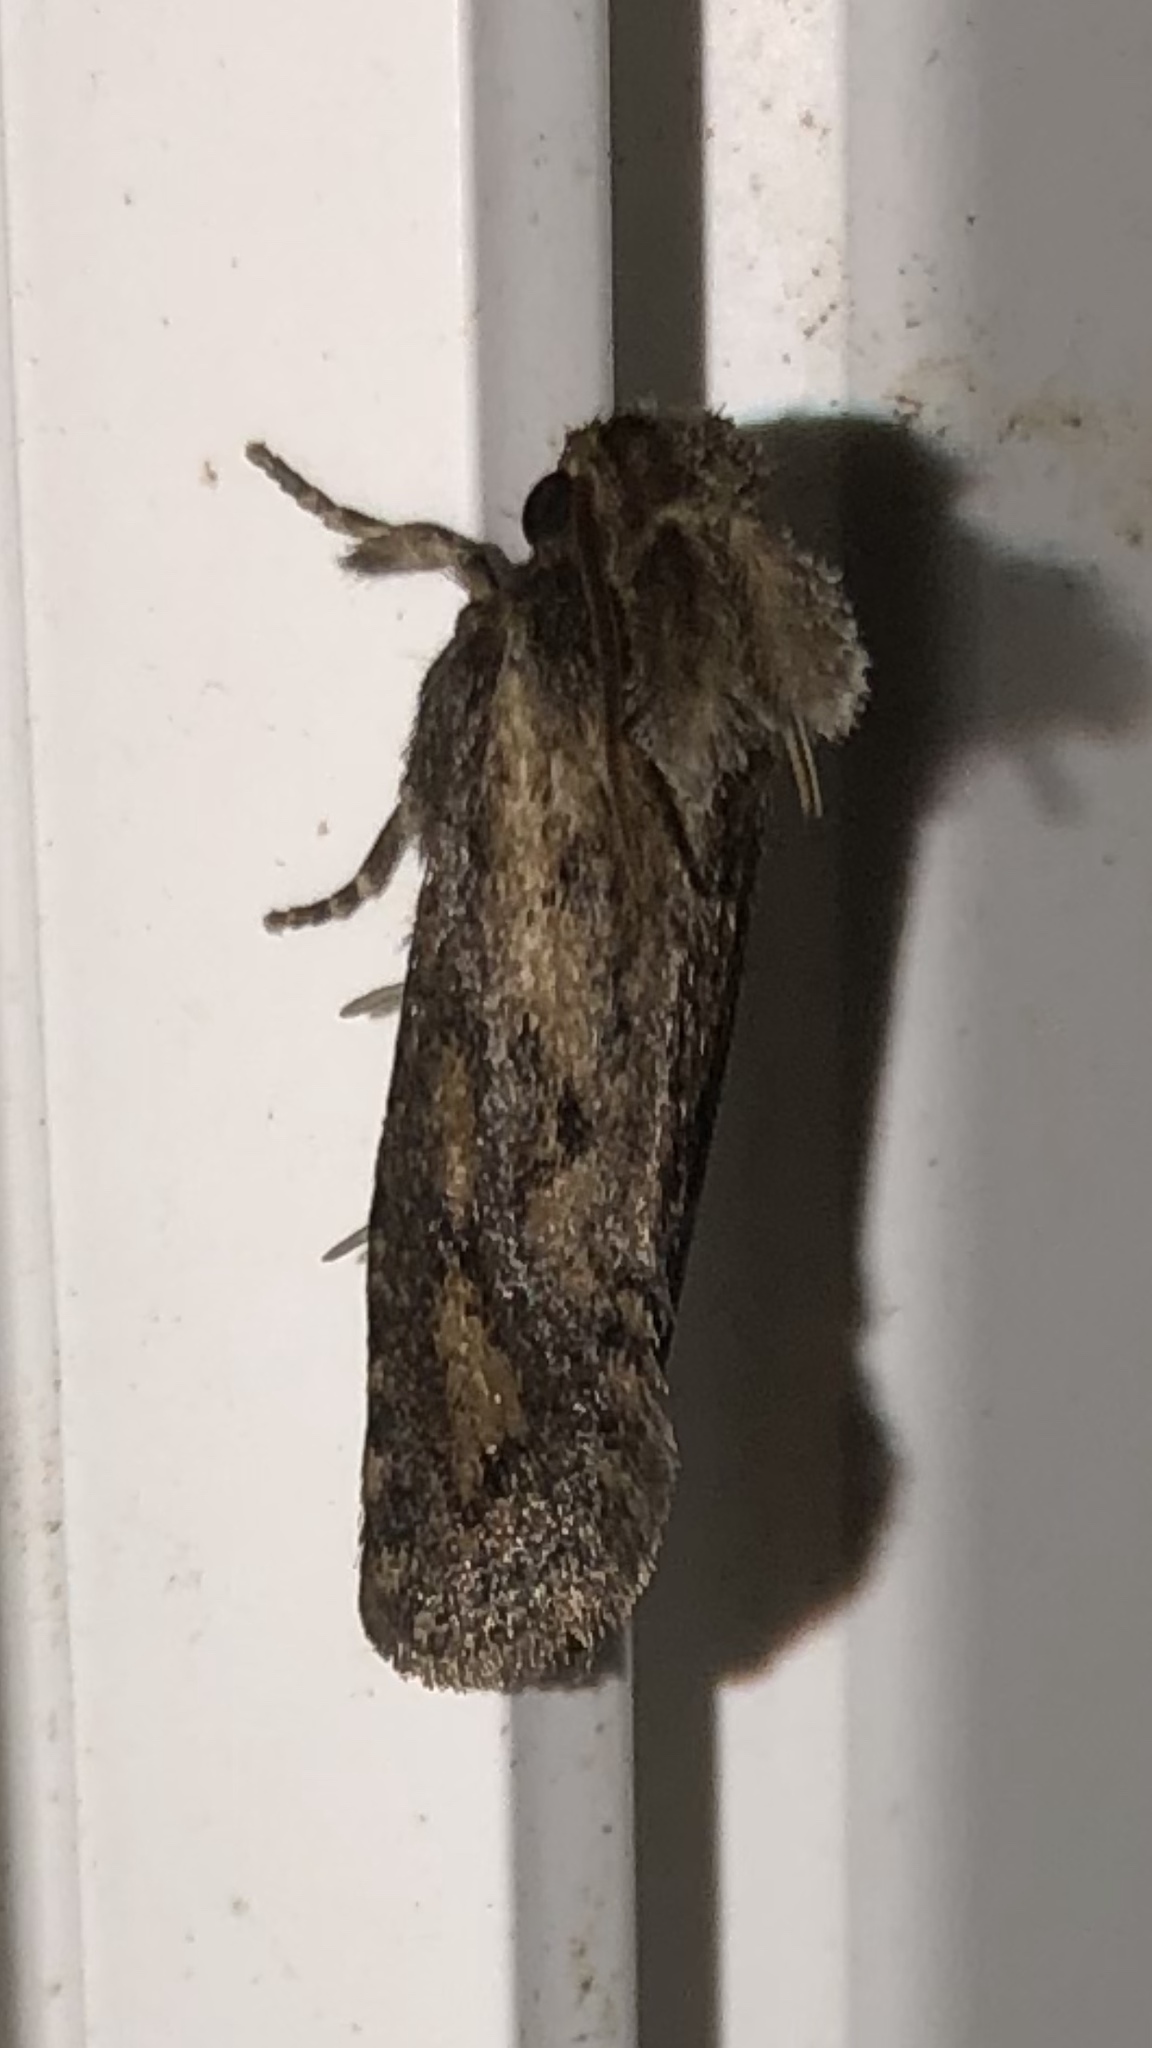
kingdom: Animalia
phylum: Arthropoda
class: Insecta
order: Lepidoptera
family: Tineidae
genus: Acrolophus
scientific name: Acrolophus popeanella
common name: Clemens' grass tubeworm moth
